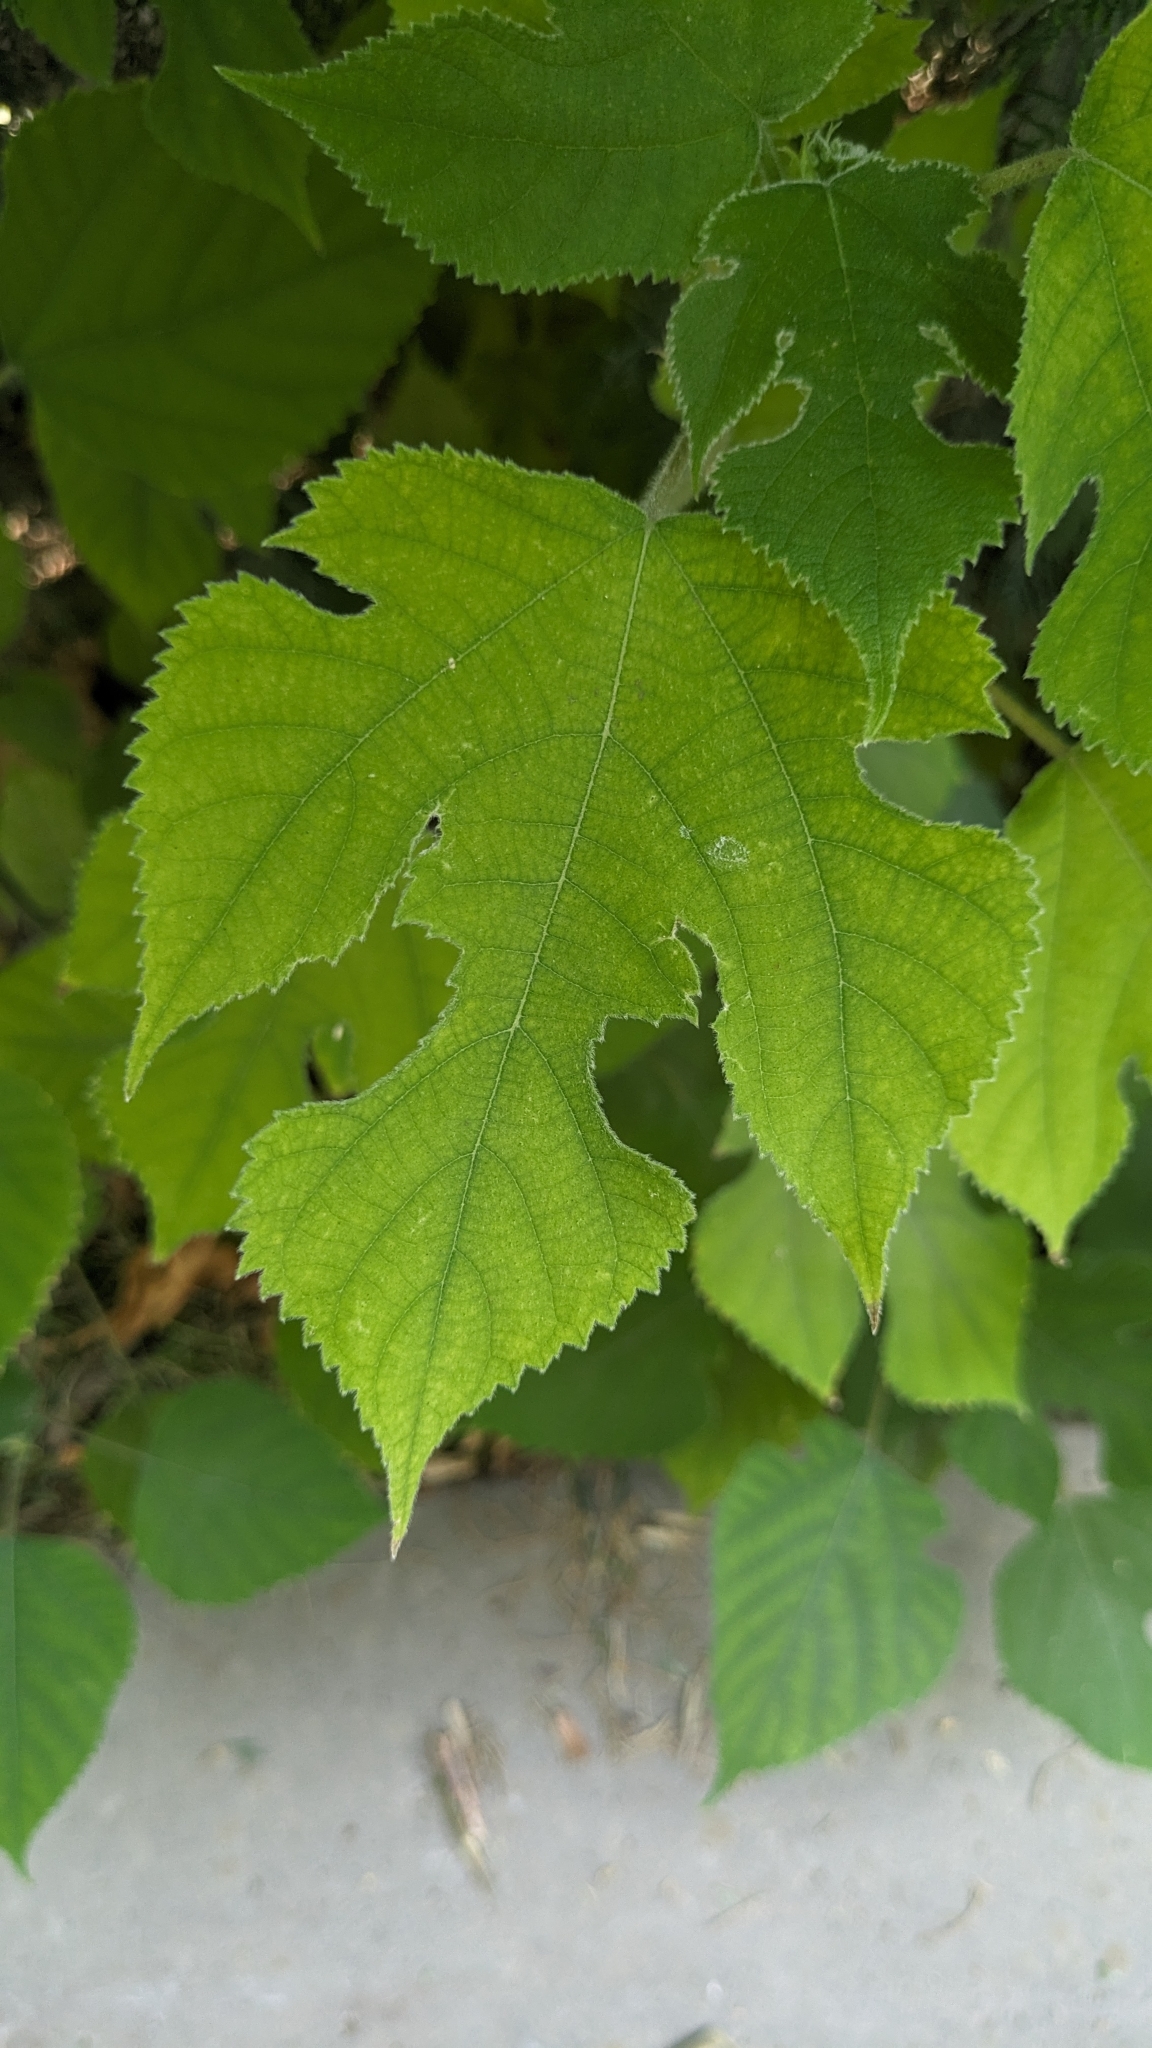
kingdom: Plantae
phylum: Tracheophyta
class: Magnoliopsida
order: Rosales
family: Moraceae
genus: Broussonetia
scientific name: Broussonetia papyrifera
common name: Paper mulberry
